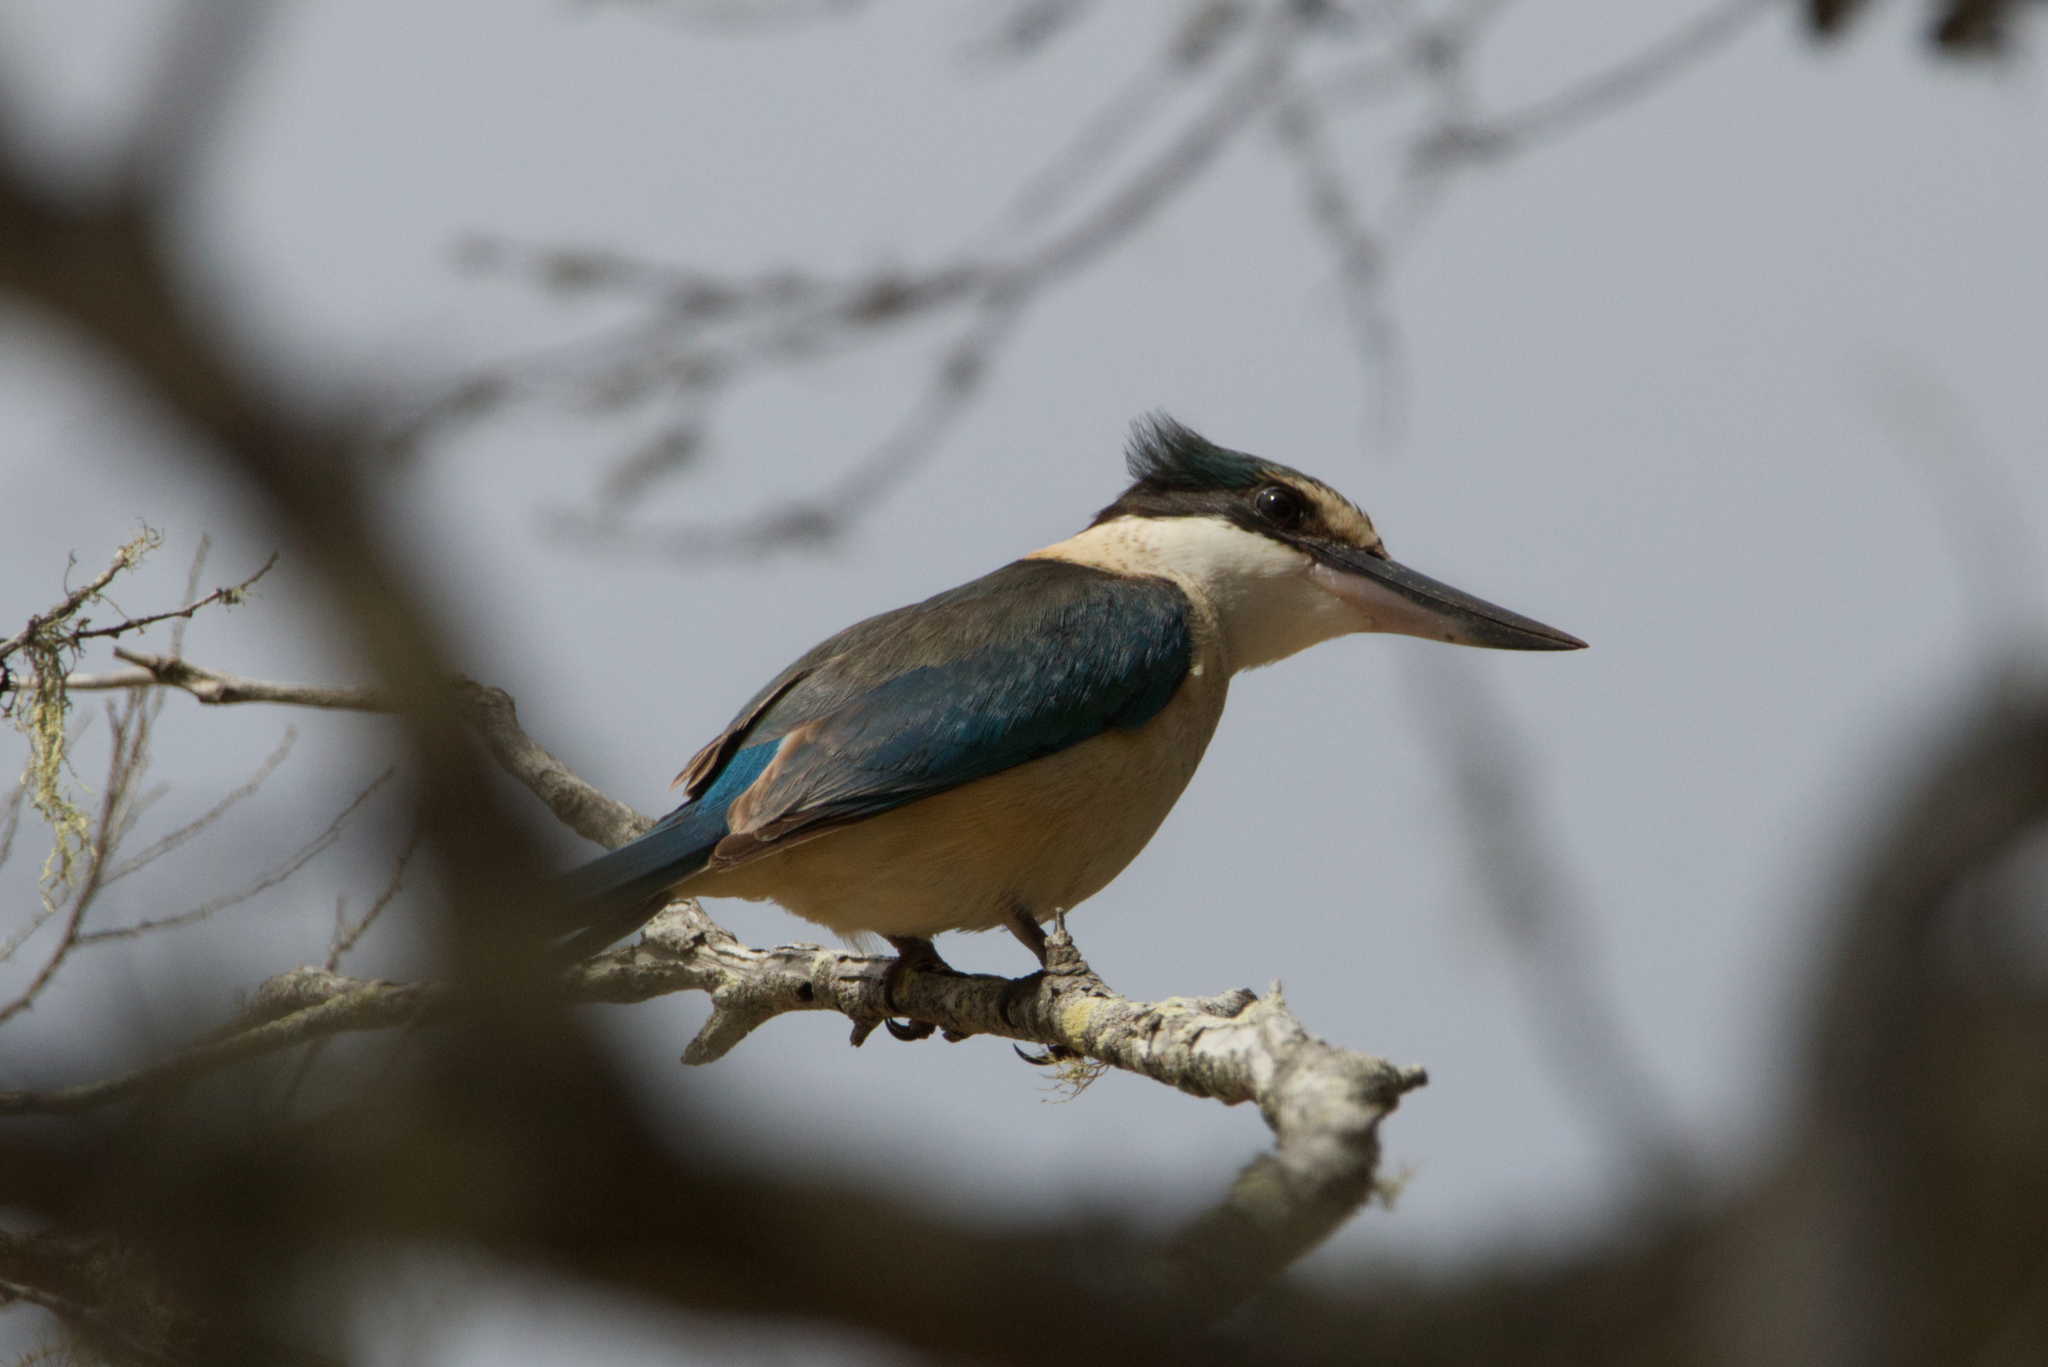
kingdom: Animalia
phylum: Chordata
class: Aves
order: Coraciiformes
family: Alcedinidae
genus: Todiramphus
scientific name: Todiramphus sanctus
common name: Sacred kingfisher
